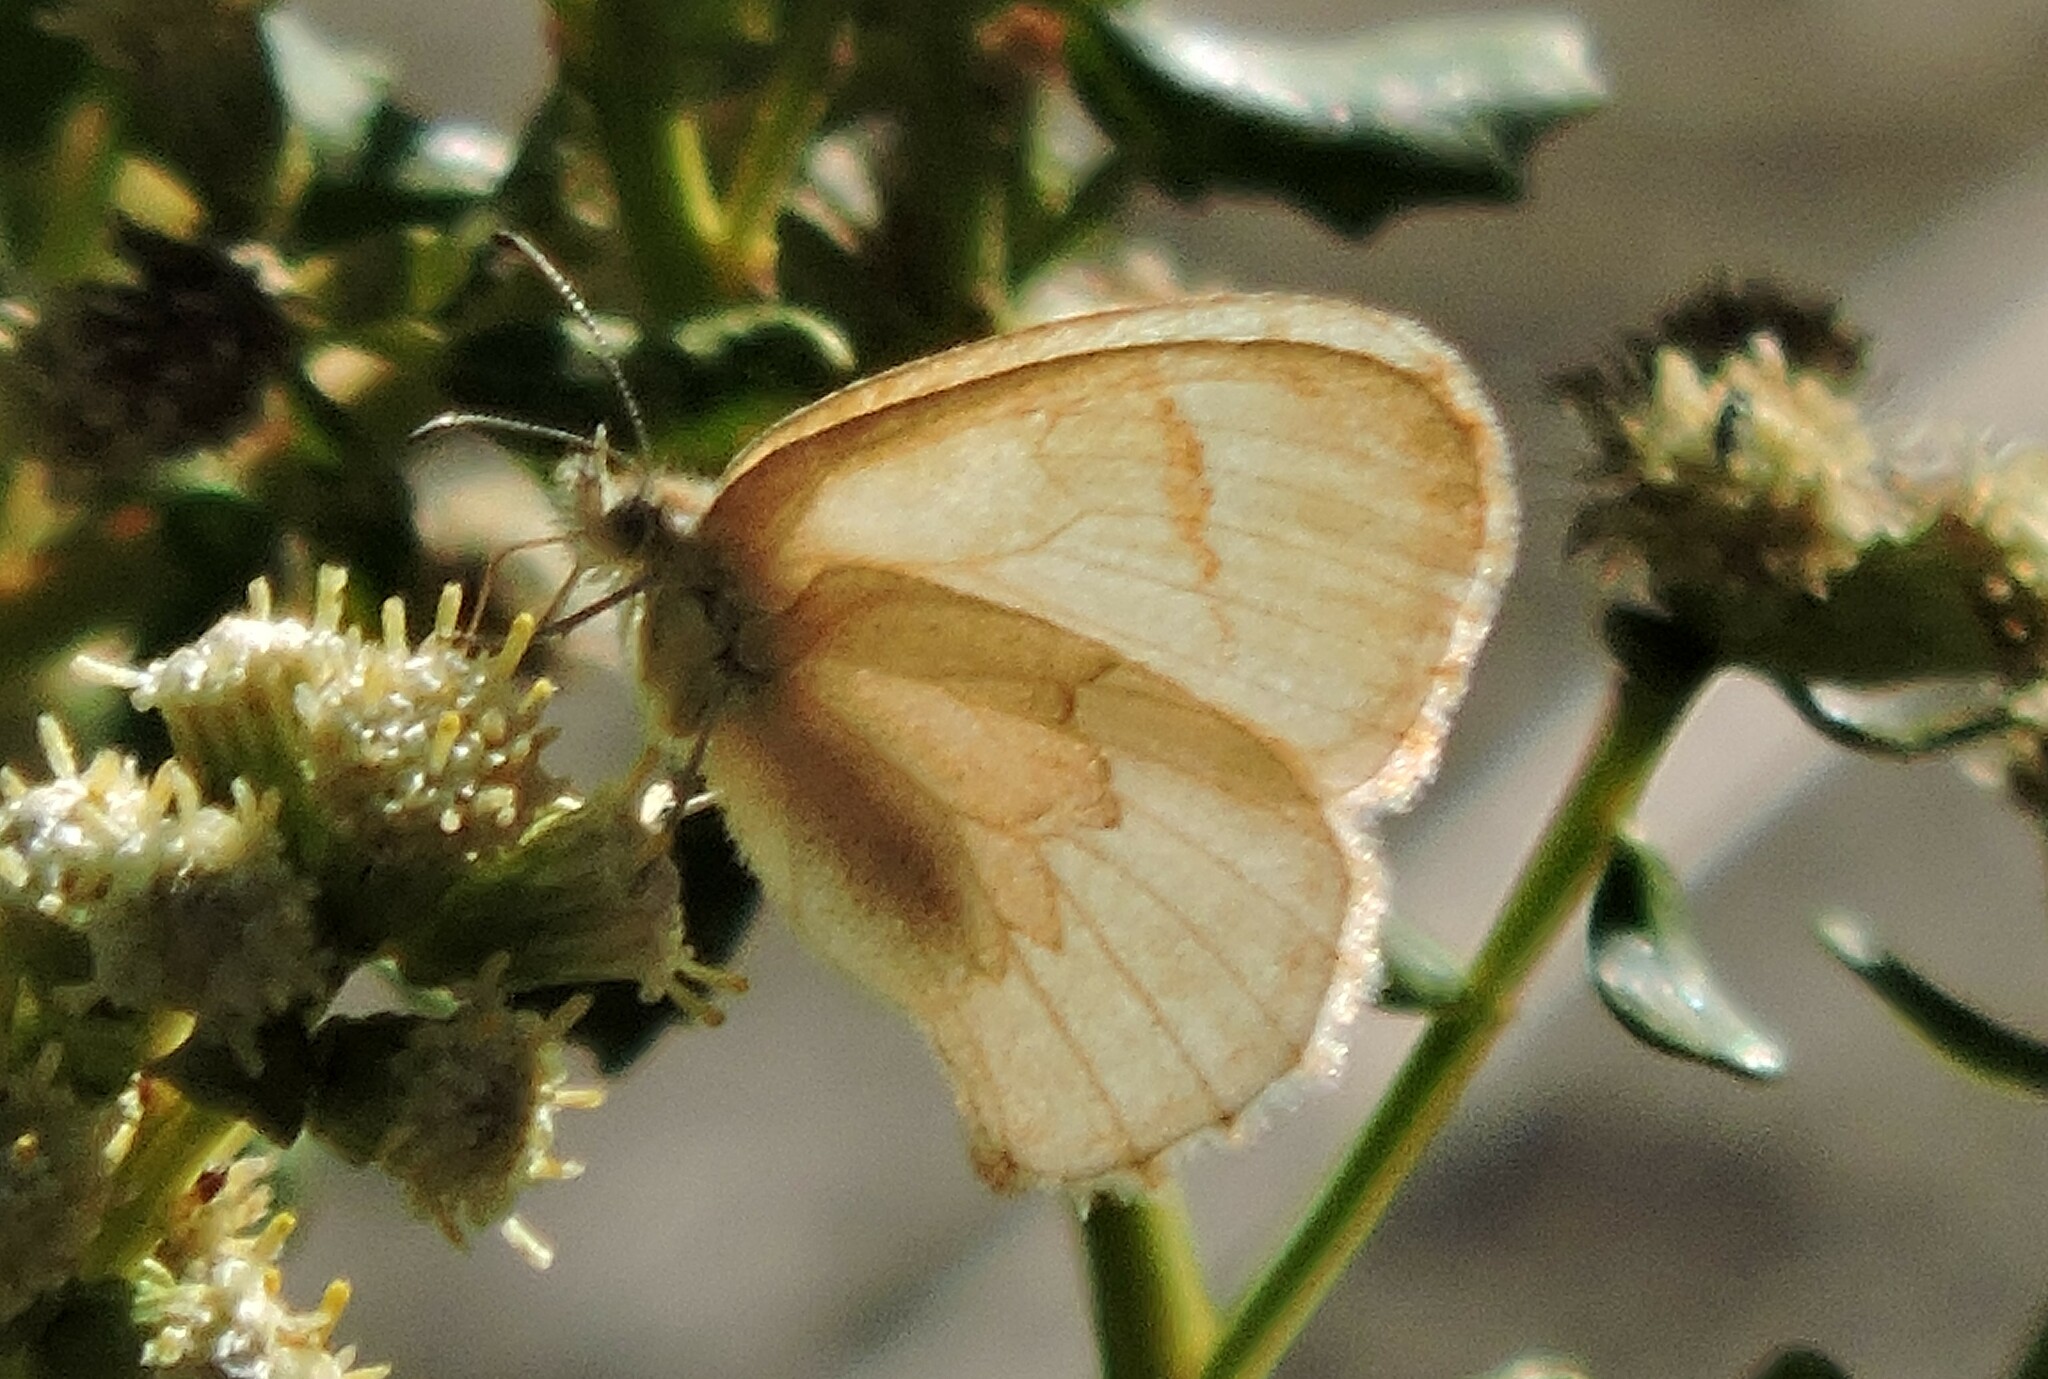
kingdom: Animalia
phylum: Arthropoda
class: Insecta
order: Lepidoptera
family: Nymphalidae
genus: Coenonympha
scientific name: Coenonympha california
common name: Common ringlet
